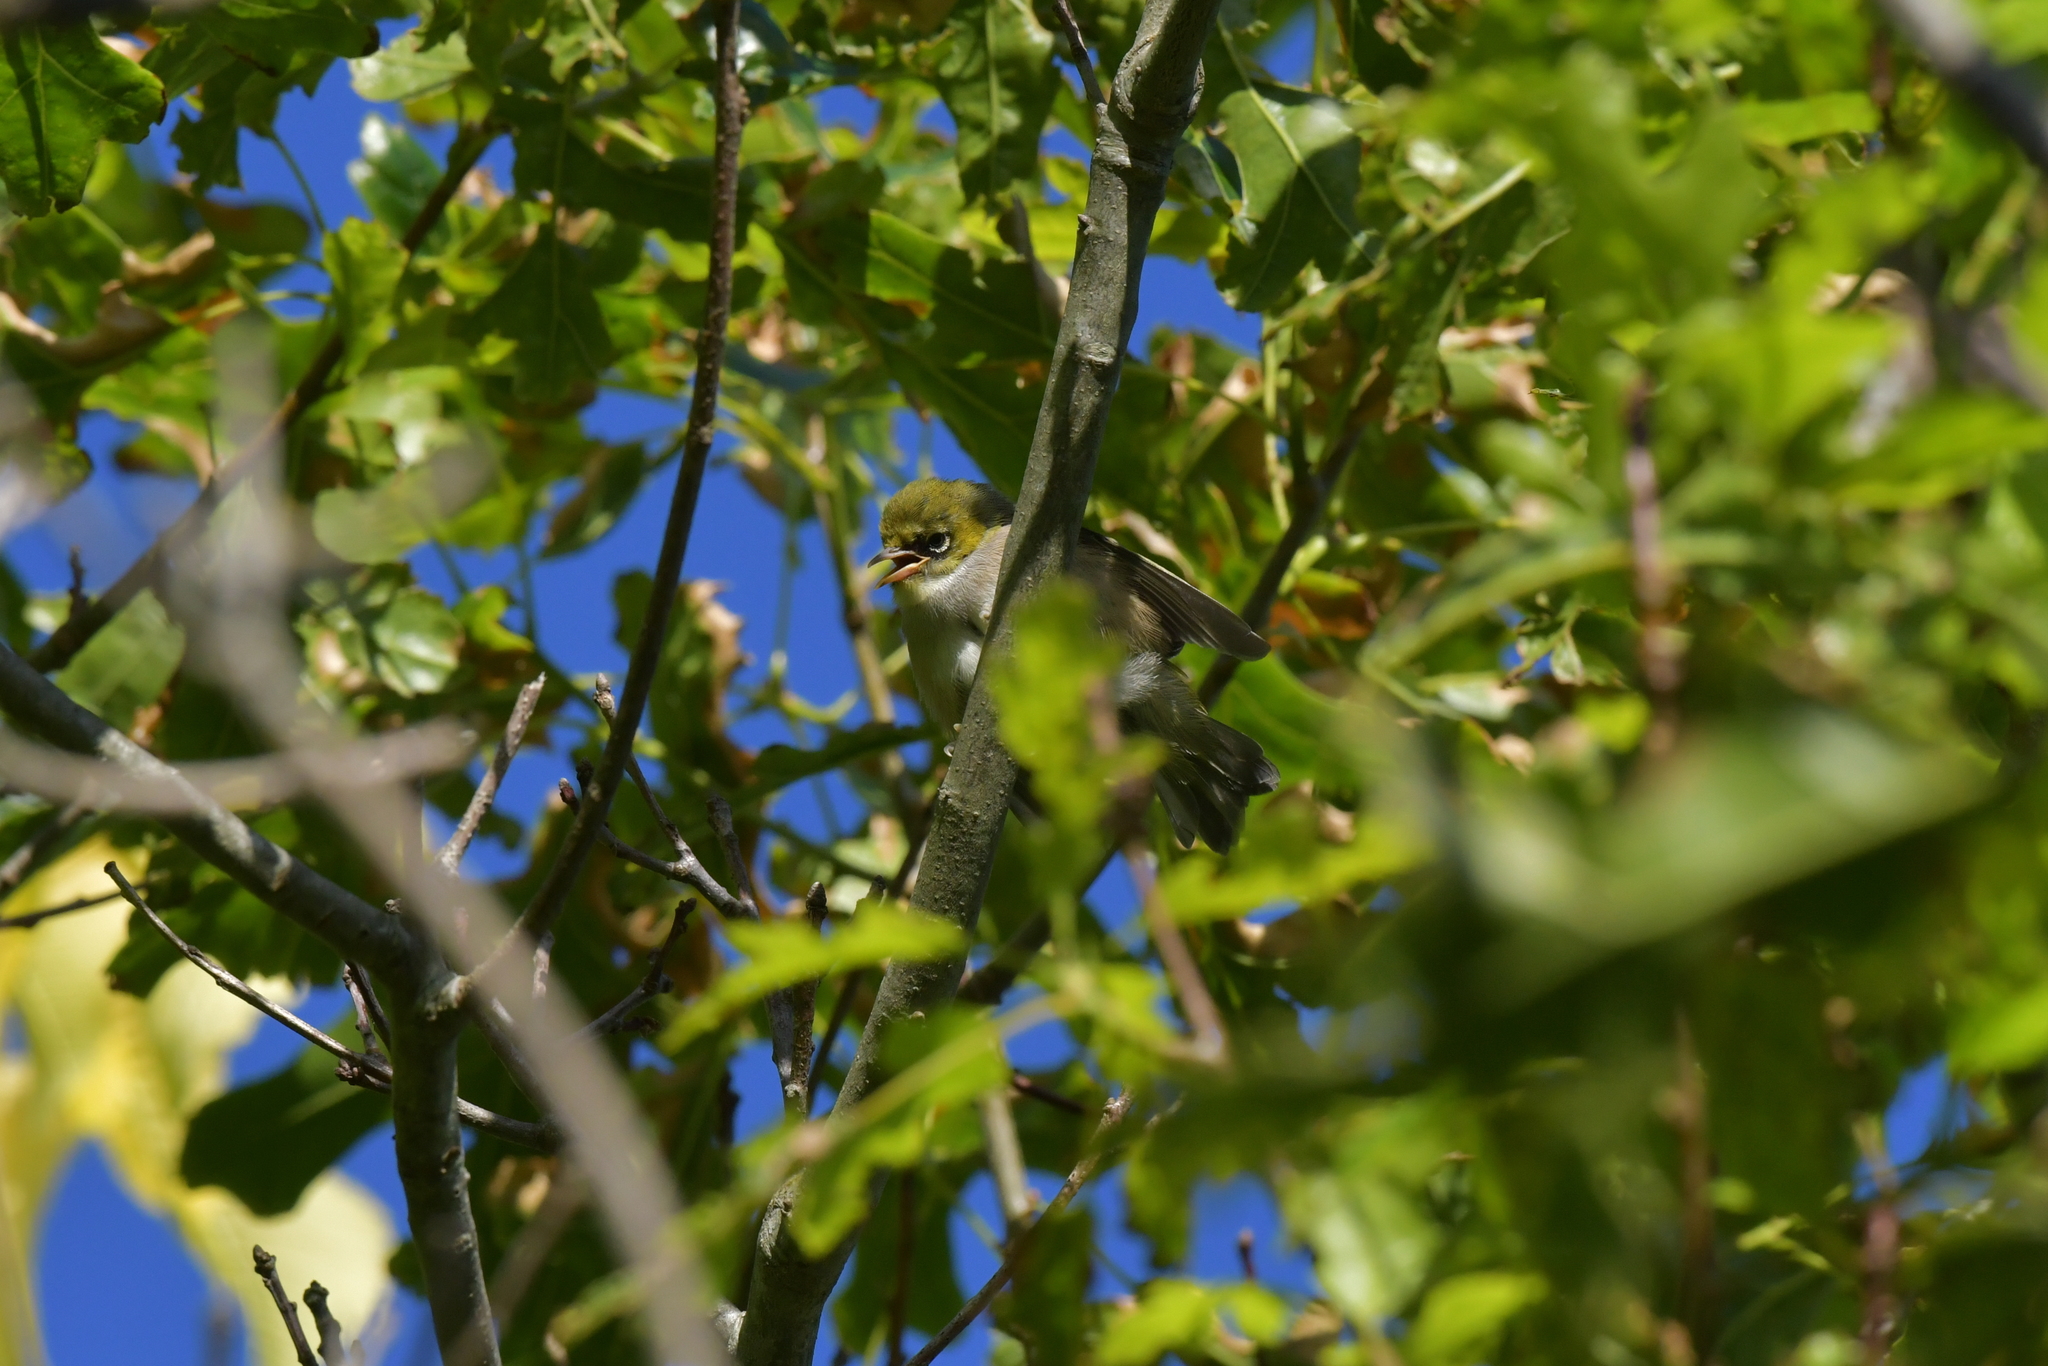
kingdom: Animalia
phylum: Chordata
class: Aves
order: Passeriformes
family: Zosteropidae
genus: Zosterops
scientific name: Zosterops lateralis
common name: Silvereye
